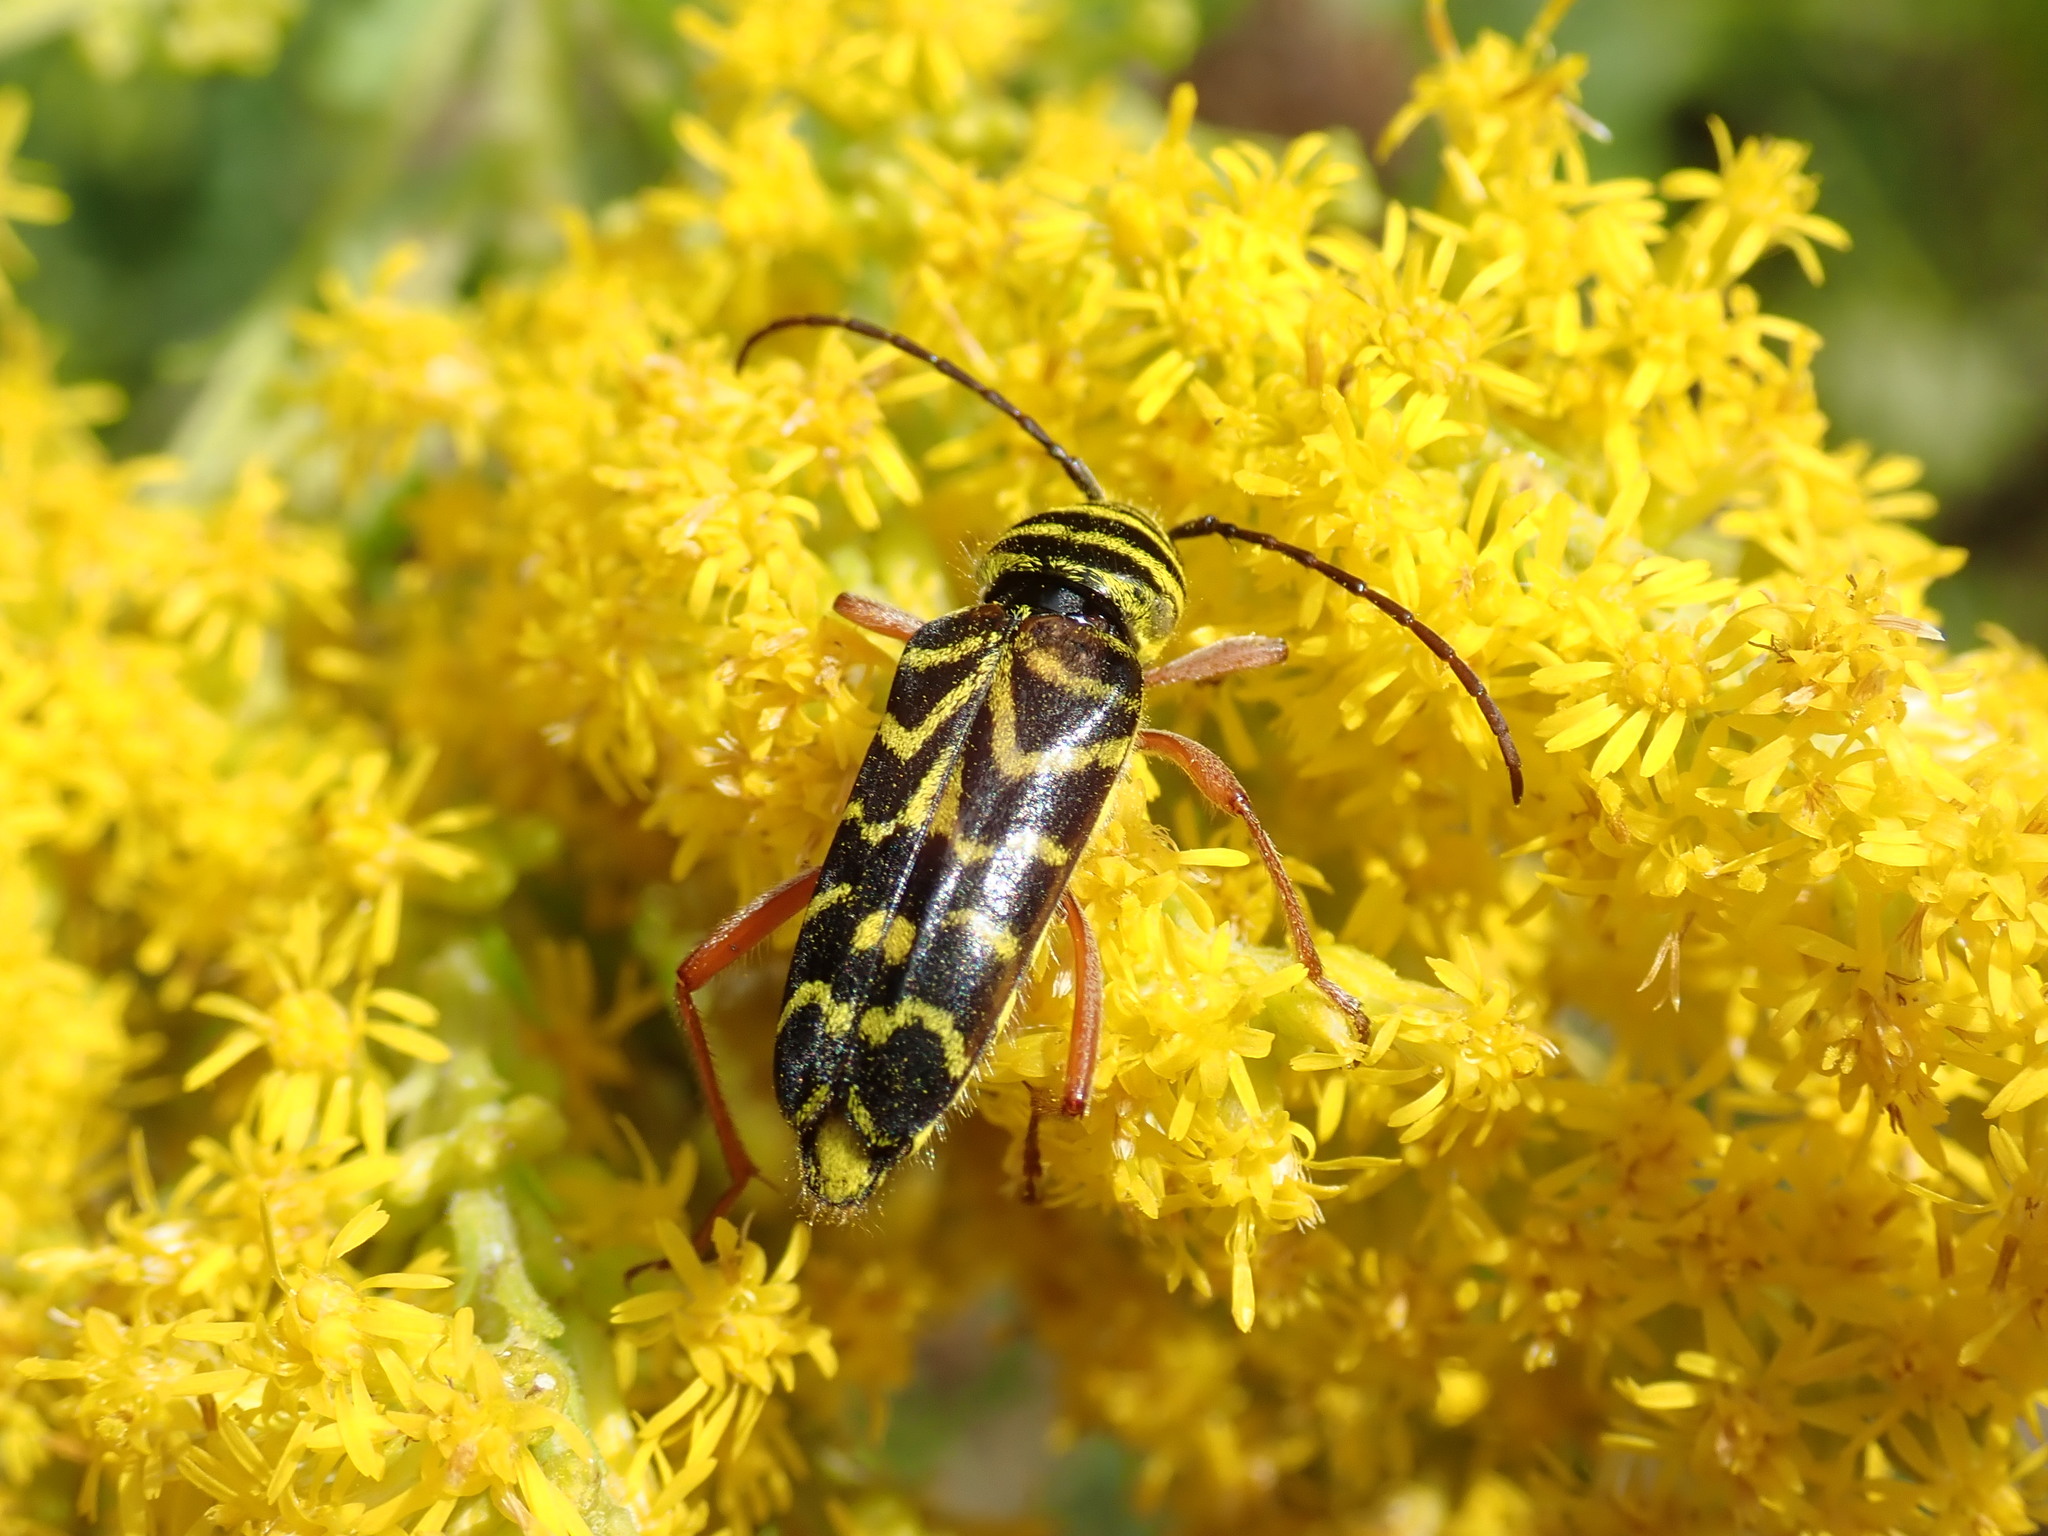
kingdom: Animalia
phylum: Arthropoda
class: Insecta
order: Coleoptera
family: Cerambycidae
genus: Megacyllene
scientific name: Megacyllene robiniae
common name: Locust borer
